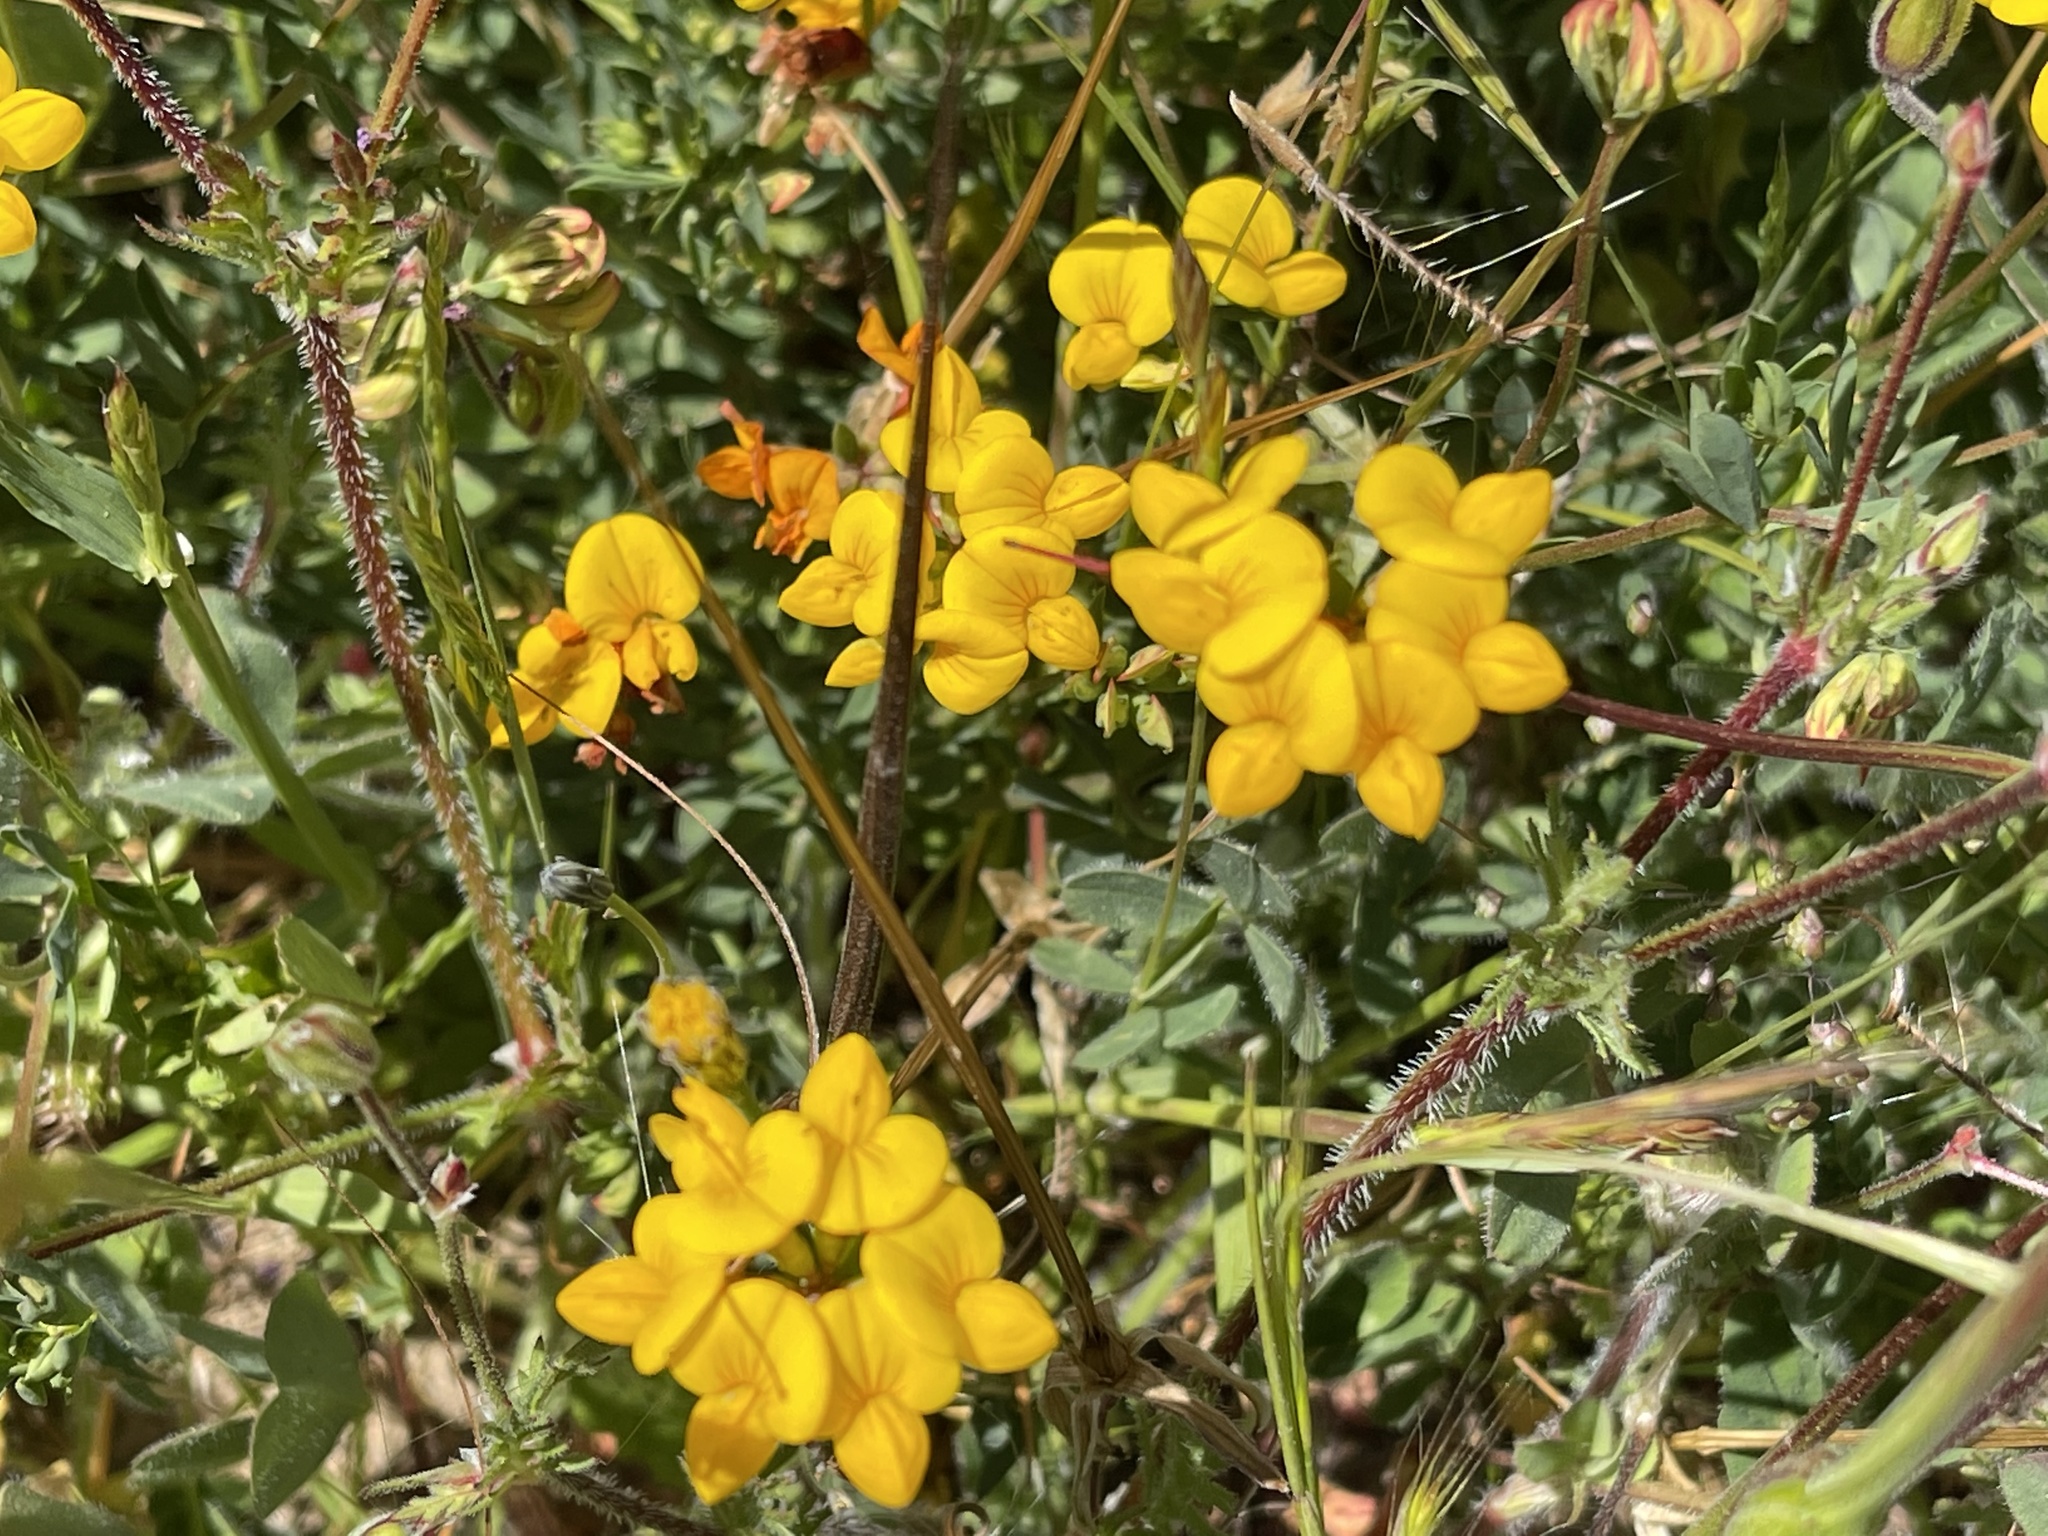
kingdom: Plantae
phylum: Tracheophyta
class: Magnoliopsida
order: Fabales
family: Fabaceae
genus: Lotus
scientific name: Lotus corniculatus
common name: Common bird's-foot-trefoil
